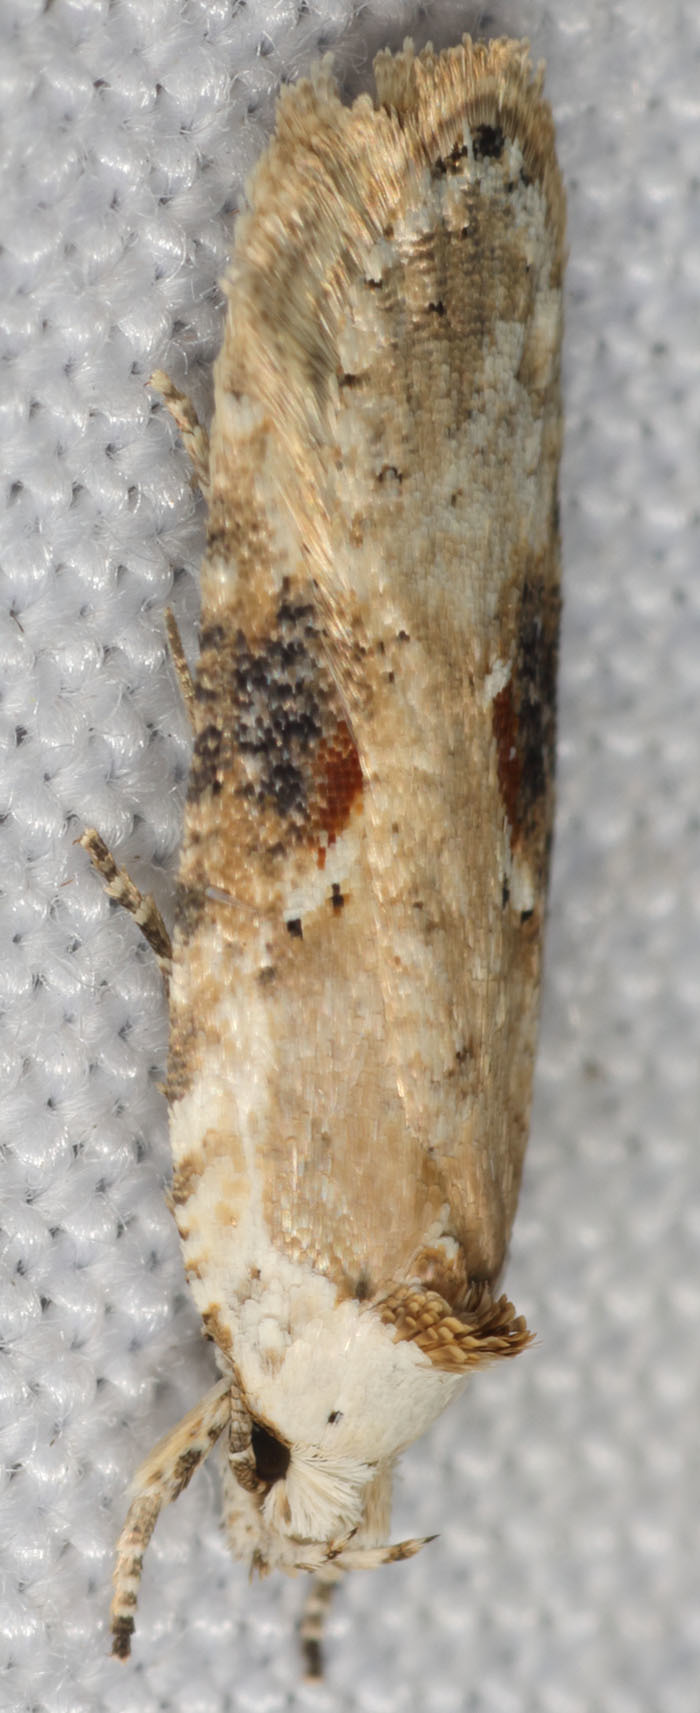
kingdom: Animalia
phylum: Arthropoda
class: Insecta
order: Lepidoptera
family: Depressariidae
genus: Agonopterix
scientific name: Agonopterix alstroemeriana
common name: Moth
